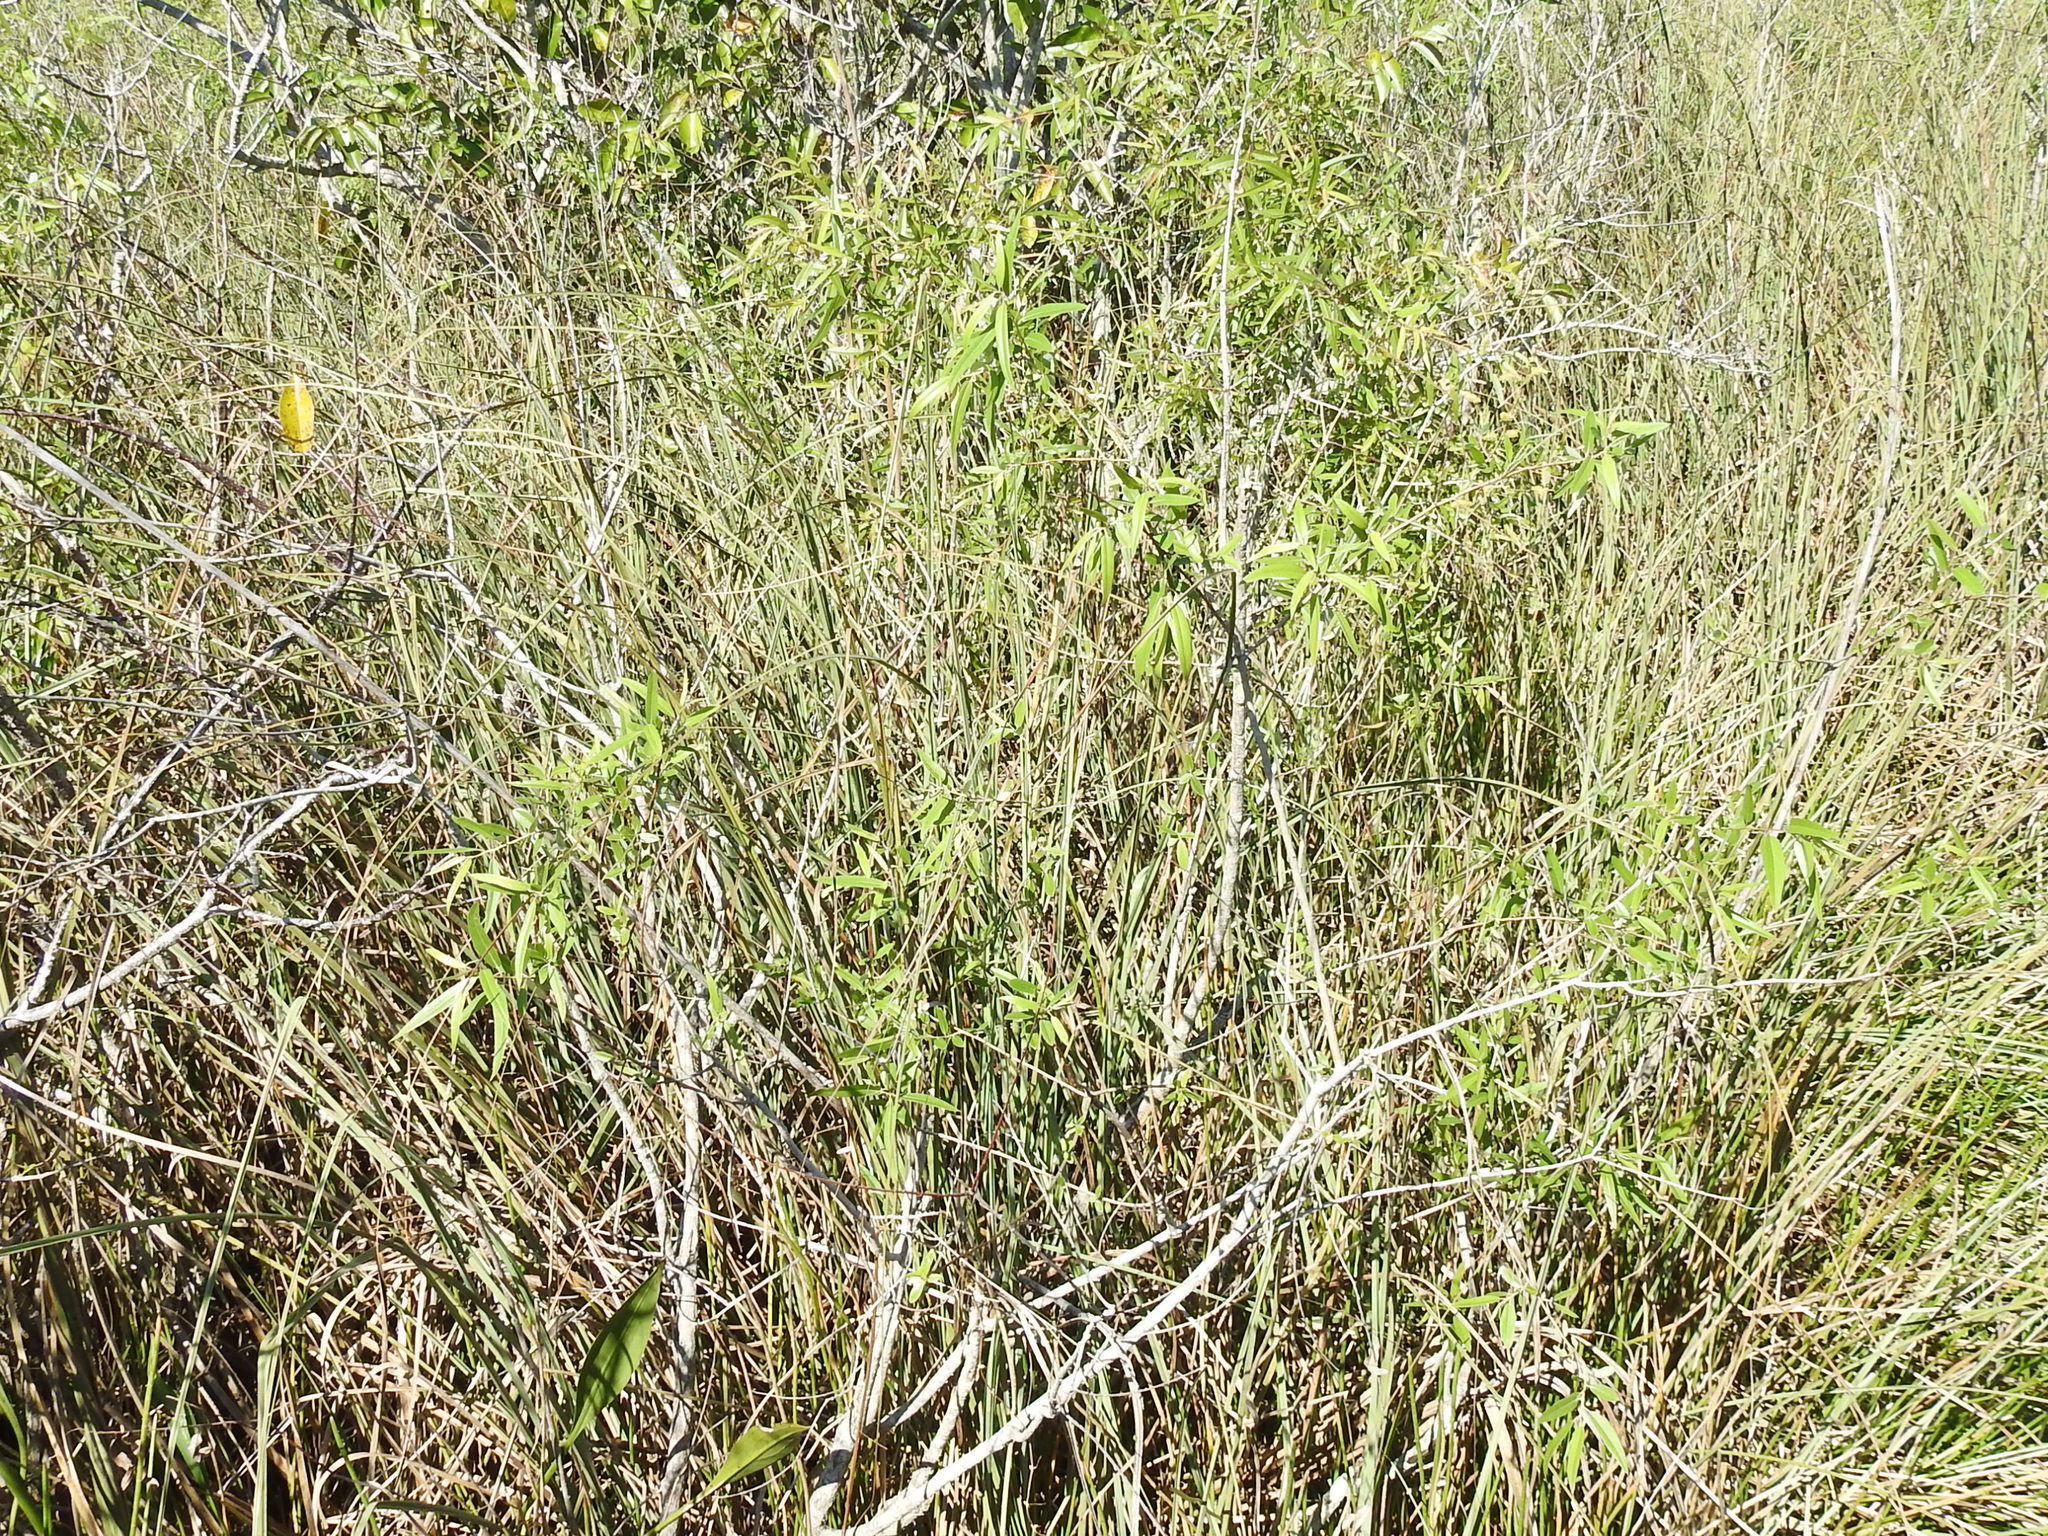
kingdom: Plantae
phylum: Tracheophyta
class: Magnoliopsida
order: Malpighiales
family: Salicaceae
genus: Salix
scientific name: Salix caroliniana
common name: Carolina willow
